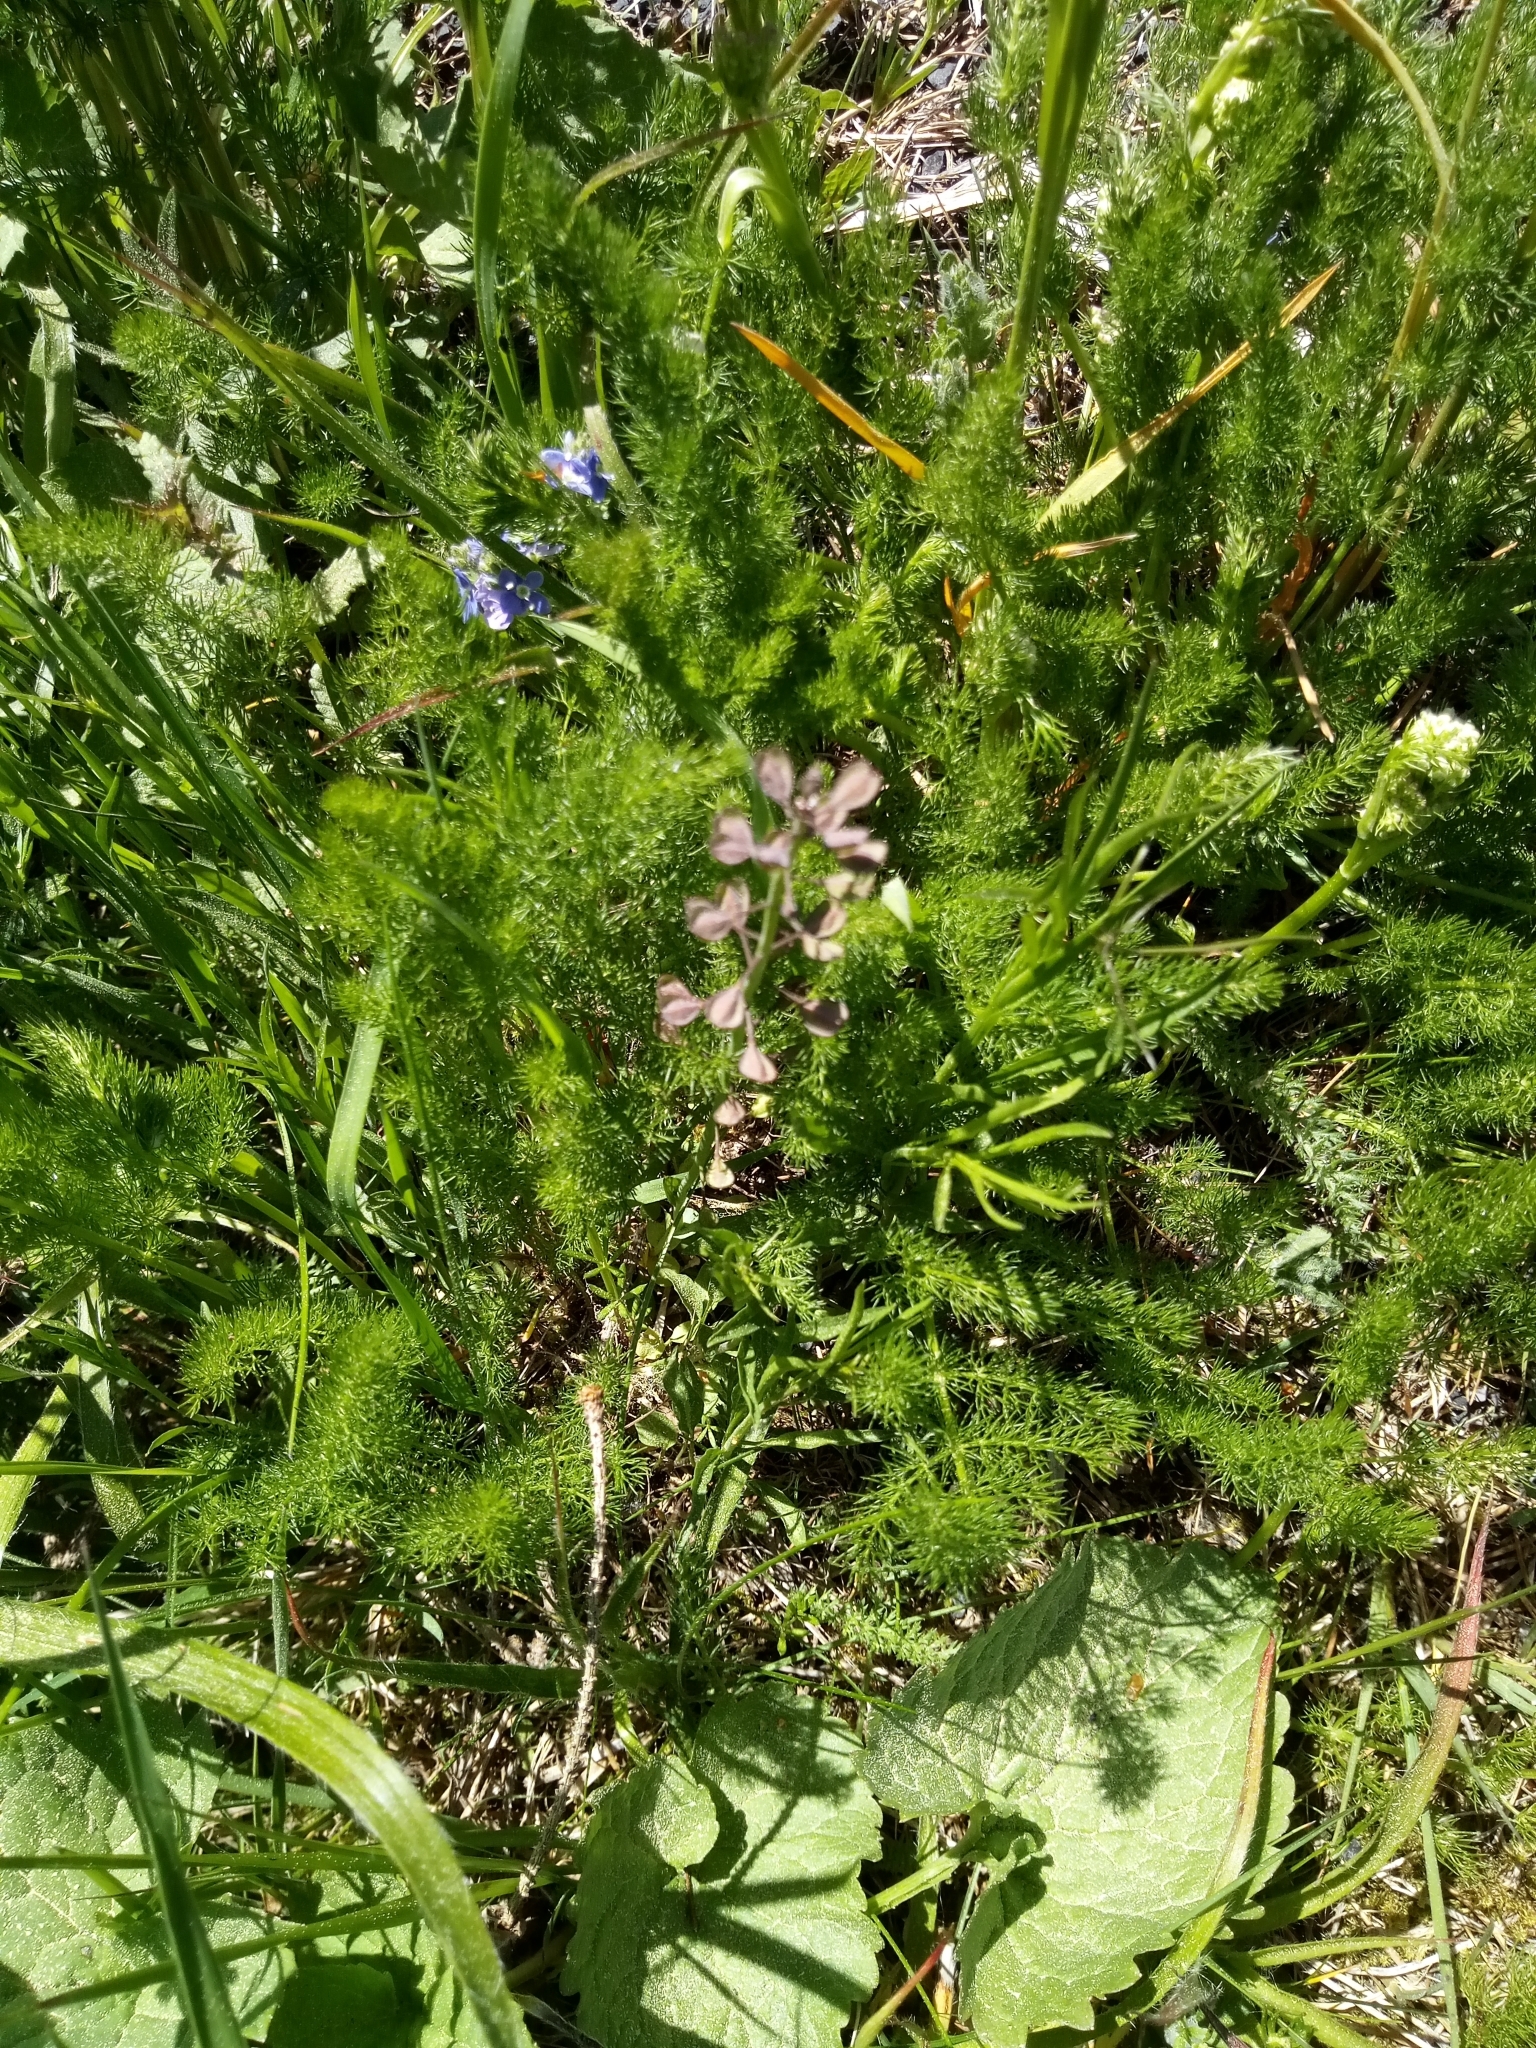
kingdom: Plantae
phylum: Tracheophyta
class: Magnoliopsida
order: Brassicales
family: Brassicaceae
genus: Noccaea
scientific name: Noccaea caerulescens
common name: Alpine pennycress
